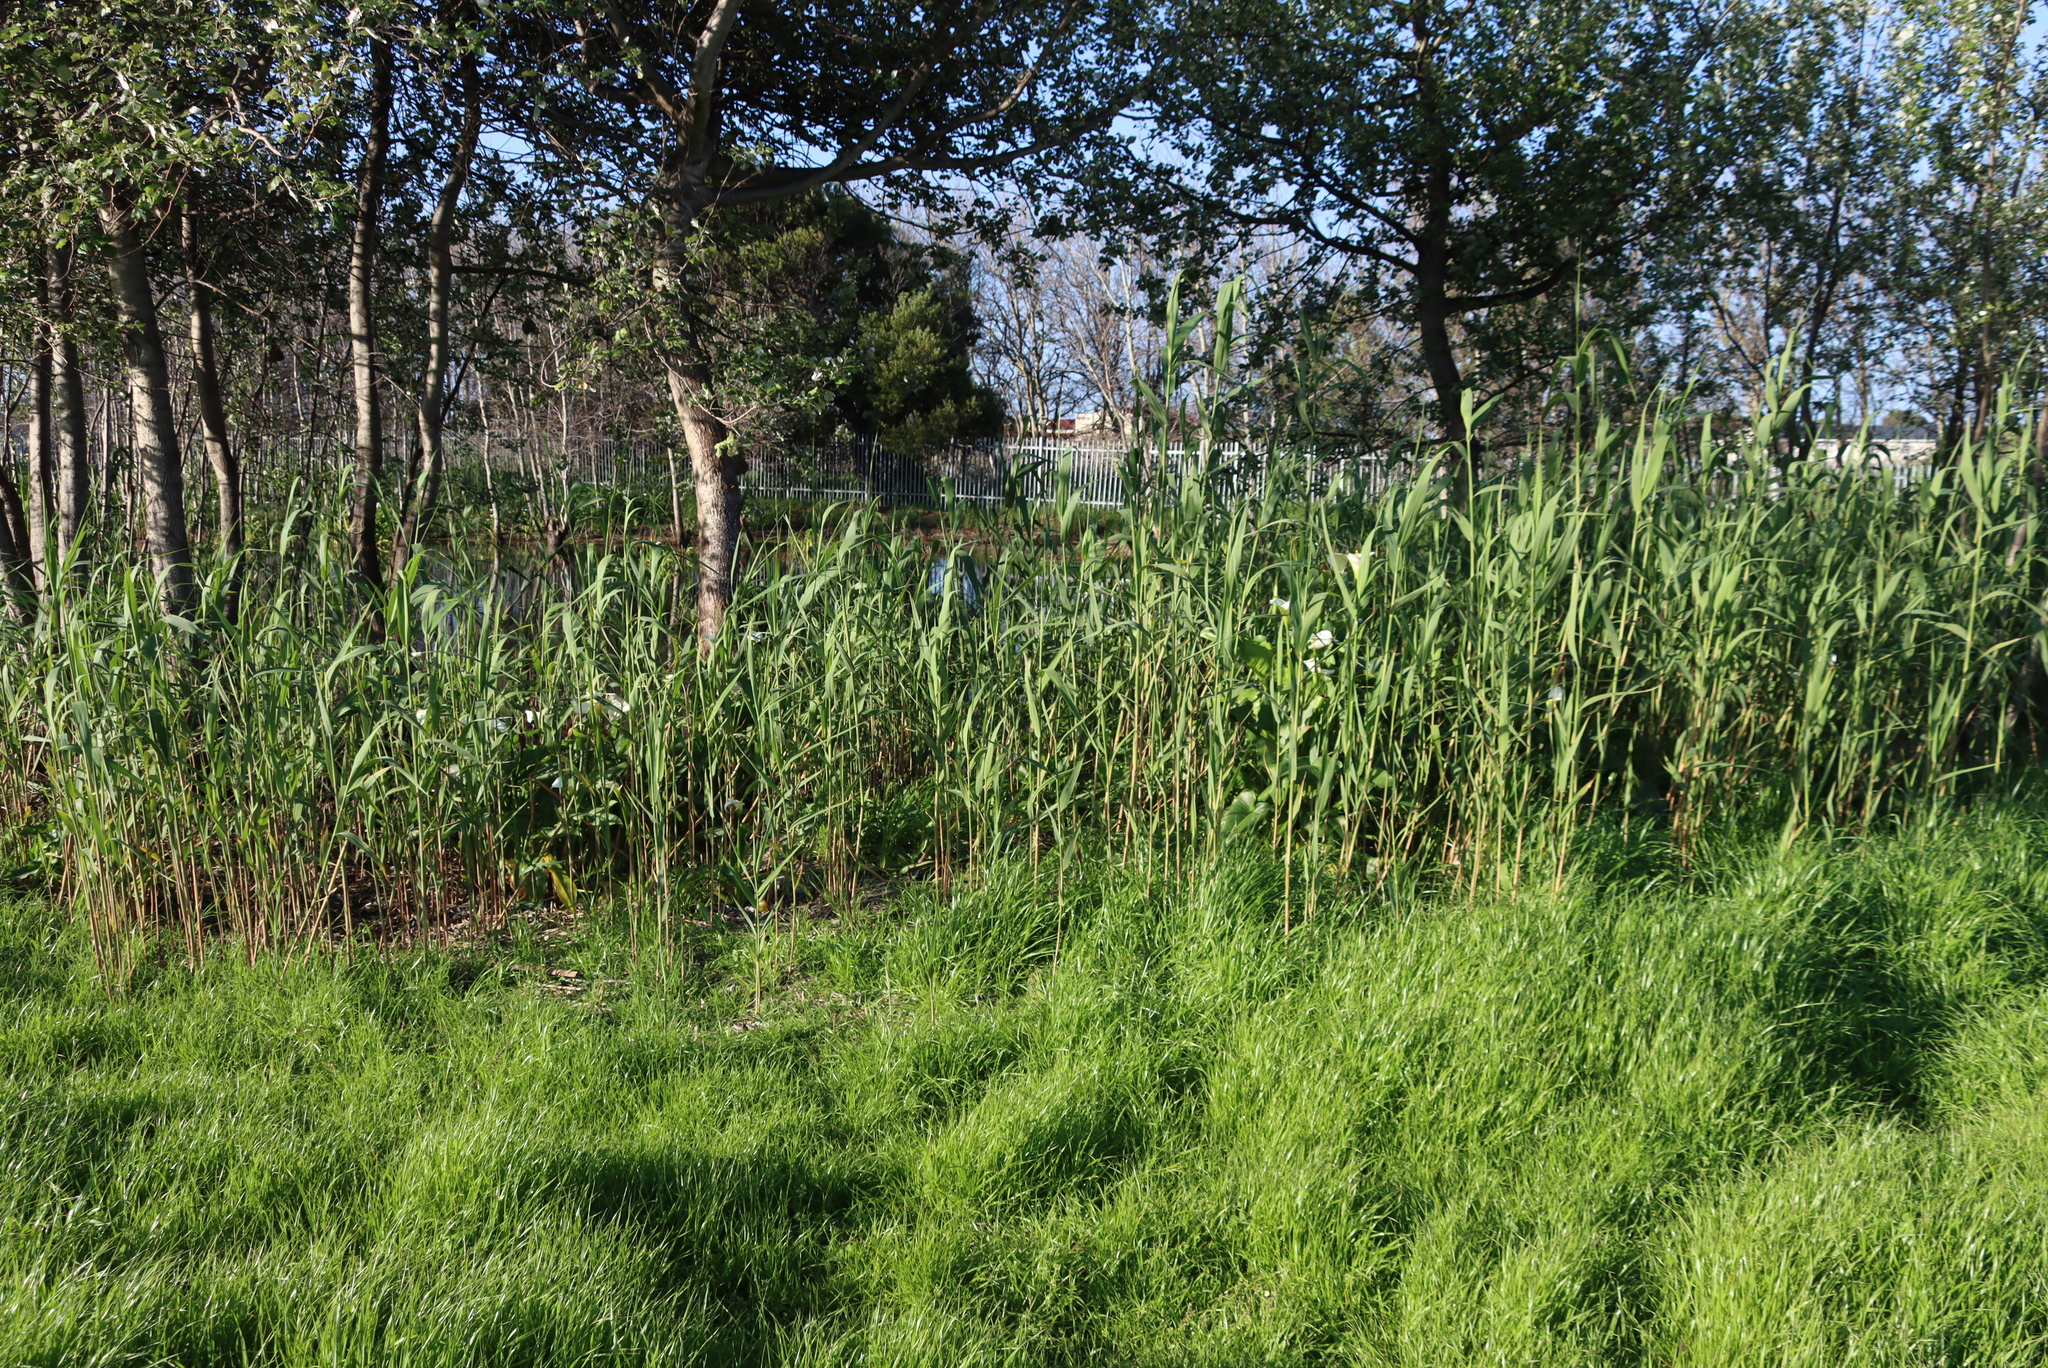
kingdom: Plantae
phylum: Tracheophyta
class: Liliopsida
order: Poales
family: Poaceae
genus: Phragmites
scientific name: Phragmites australis
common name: Common reed
